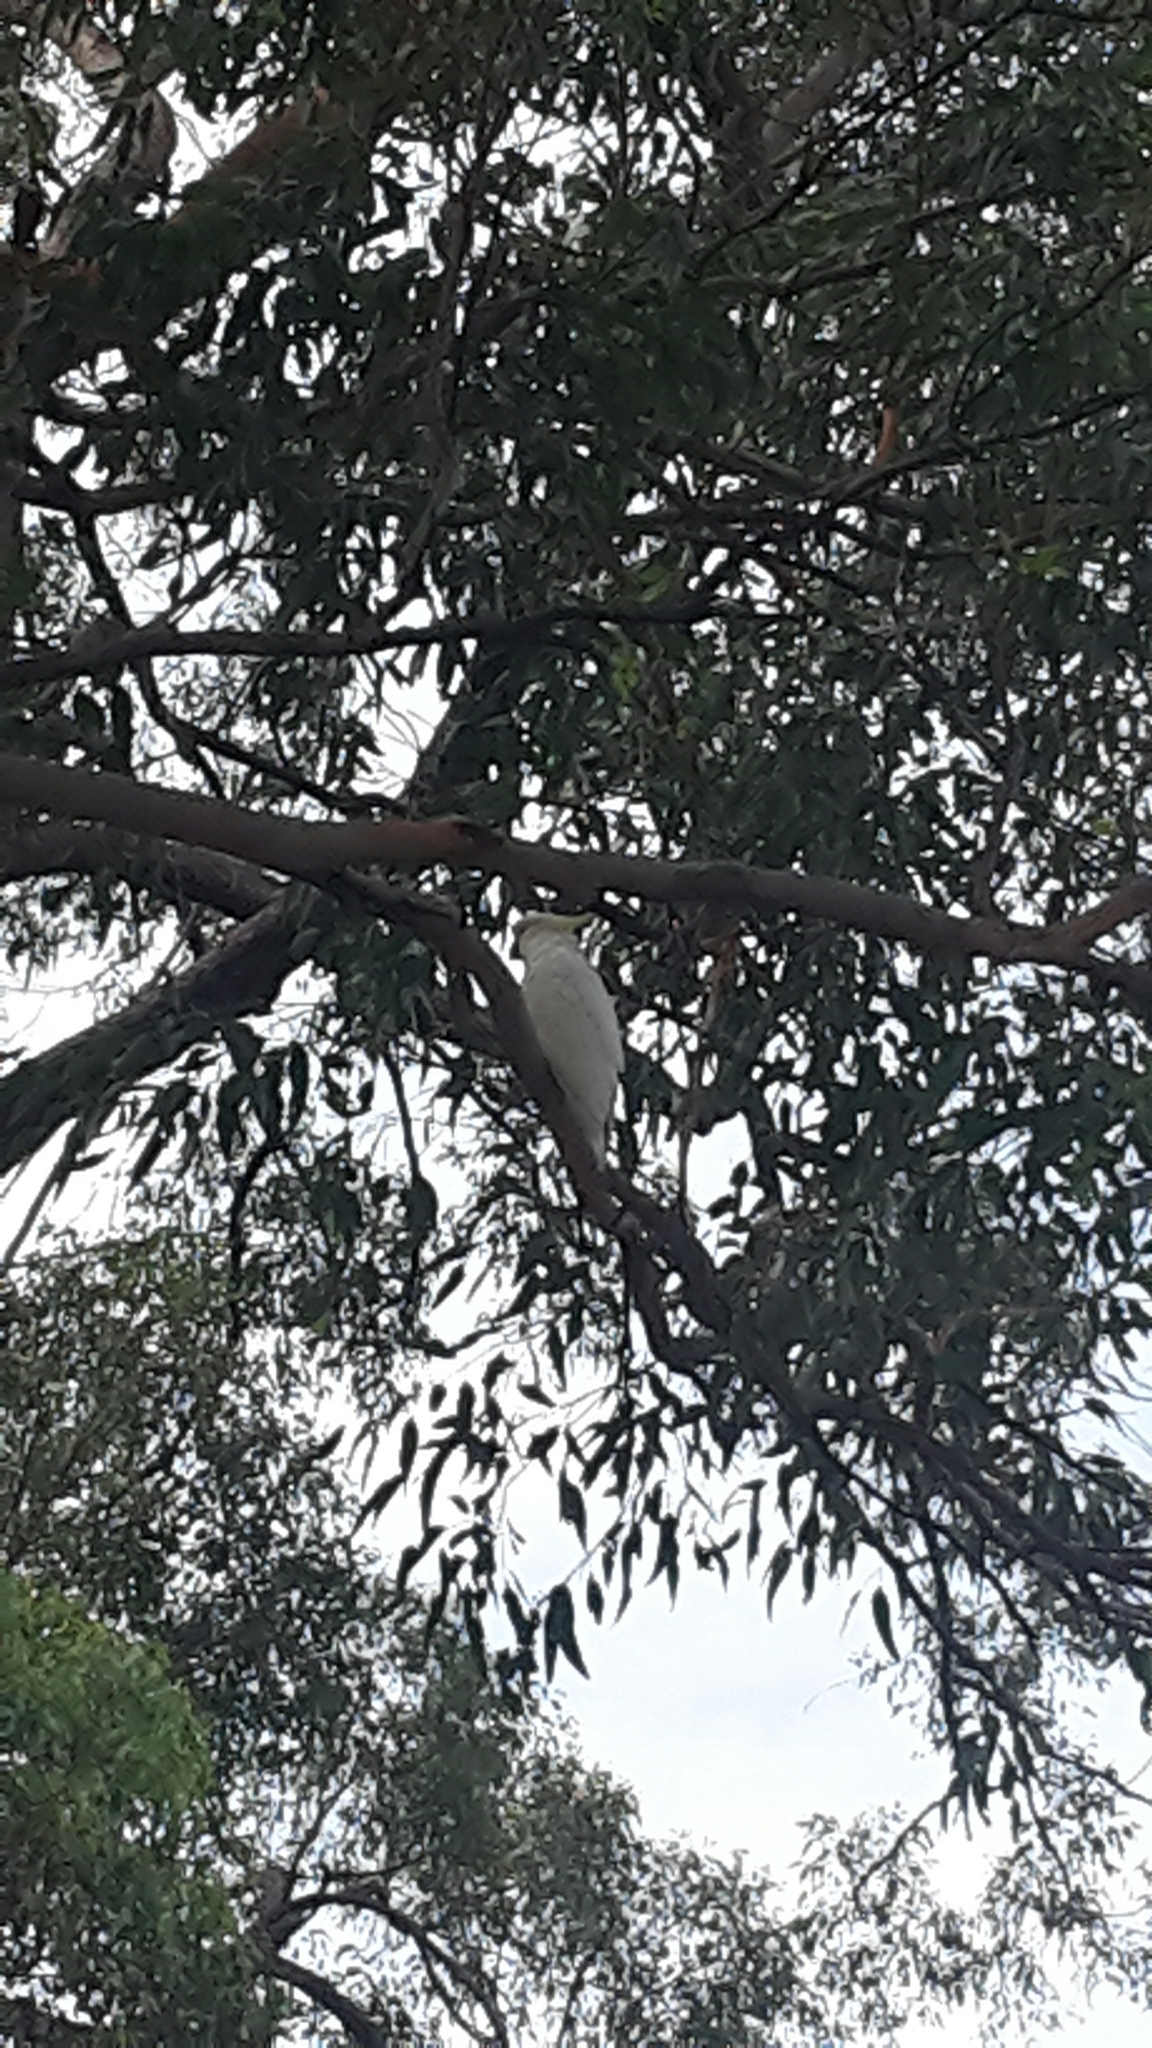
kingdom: Animalia
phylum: Chordata
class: Aves
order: Psittaciformes
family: Psittacidae
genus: Cacatua
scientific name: Cacatua galerita
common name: Sulphur-crested cockatoo
